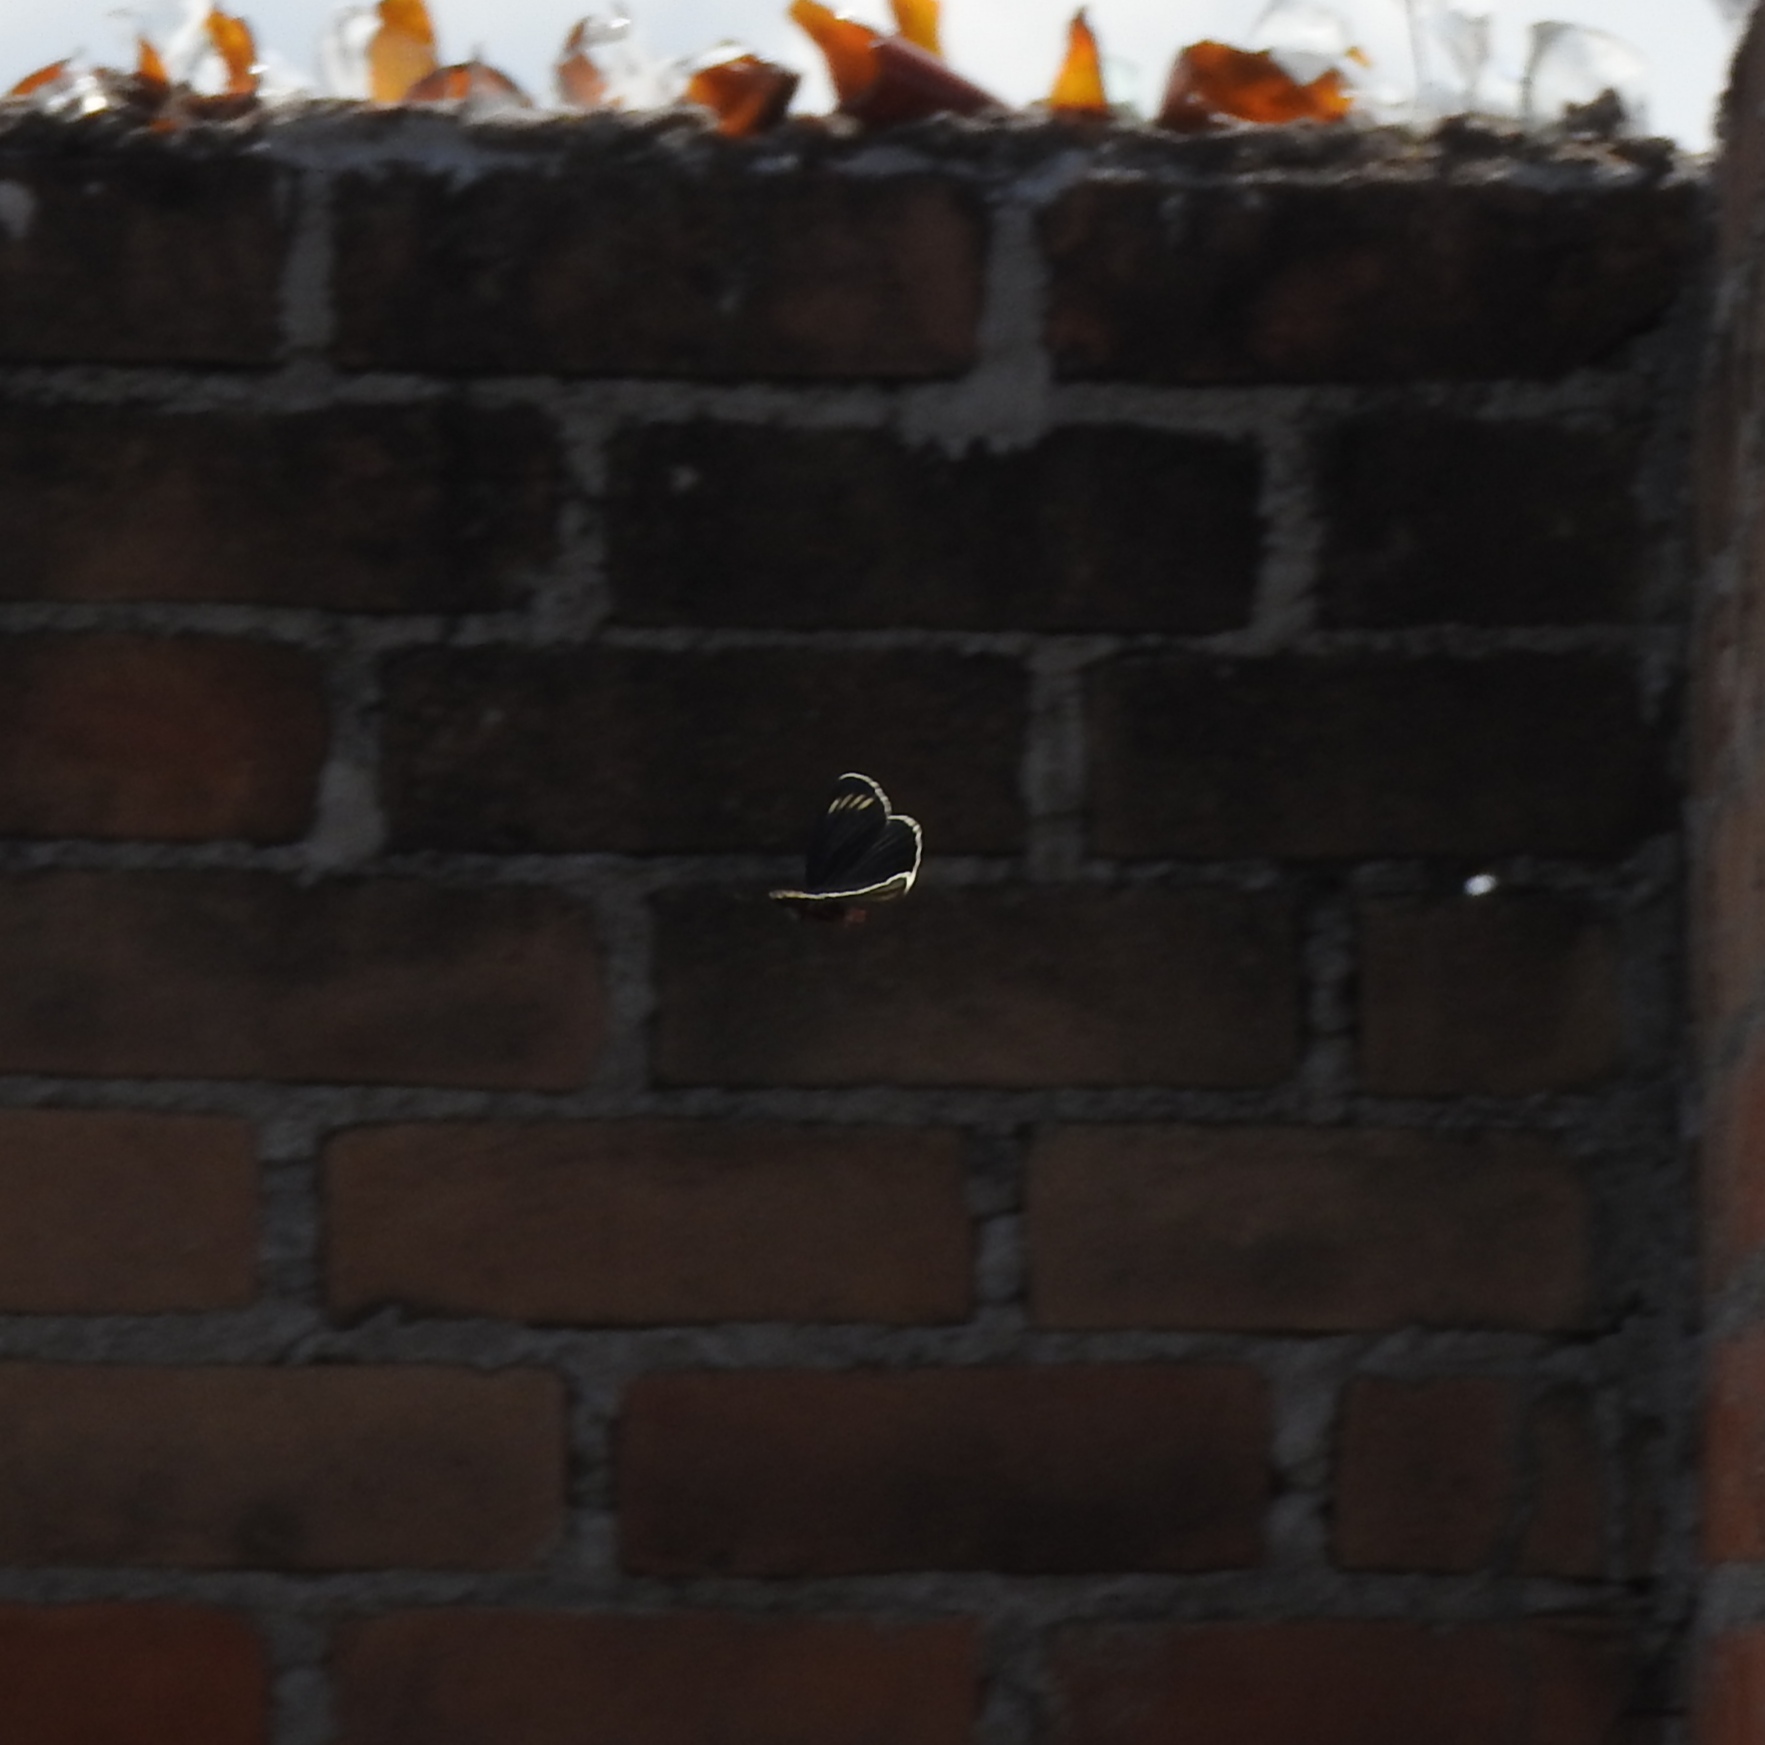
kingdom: Animalia
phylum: Arthropoda
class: Insecta
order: Lepidoptera
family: Nymphalidae
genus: Chlosyne
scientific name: Chlosyne ehrenbergii
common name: White-rayed patch
